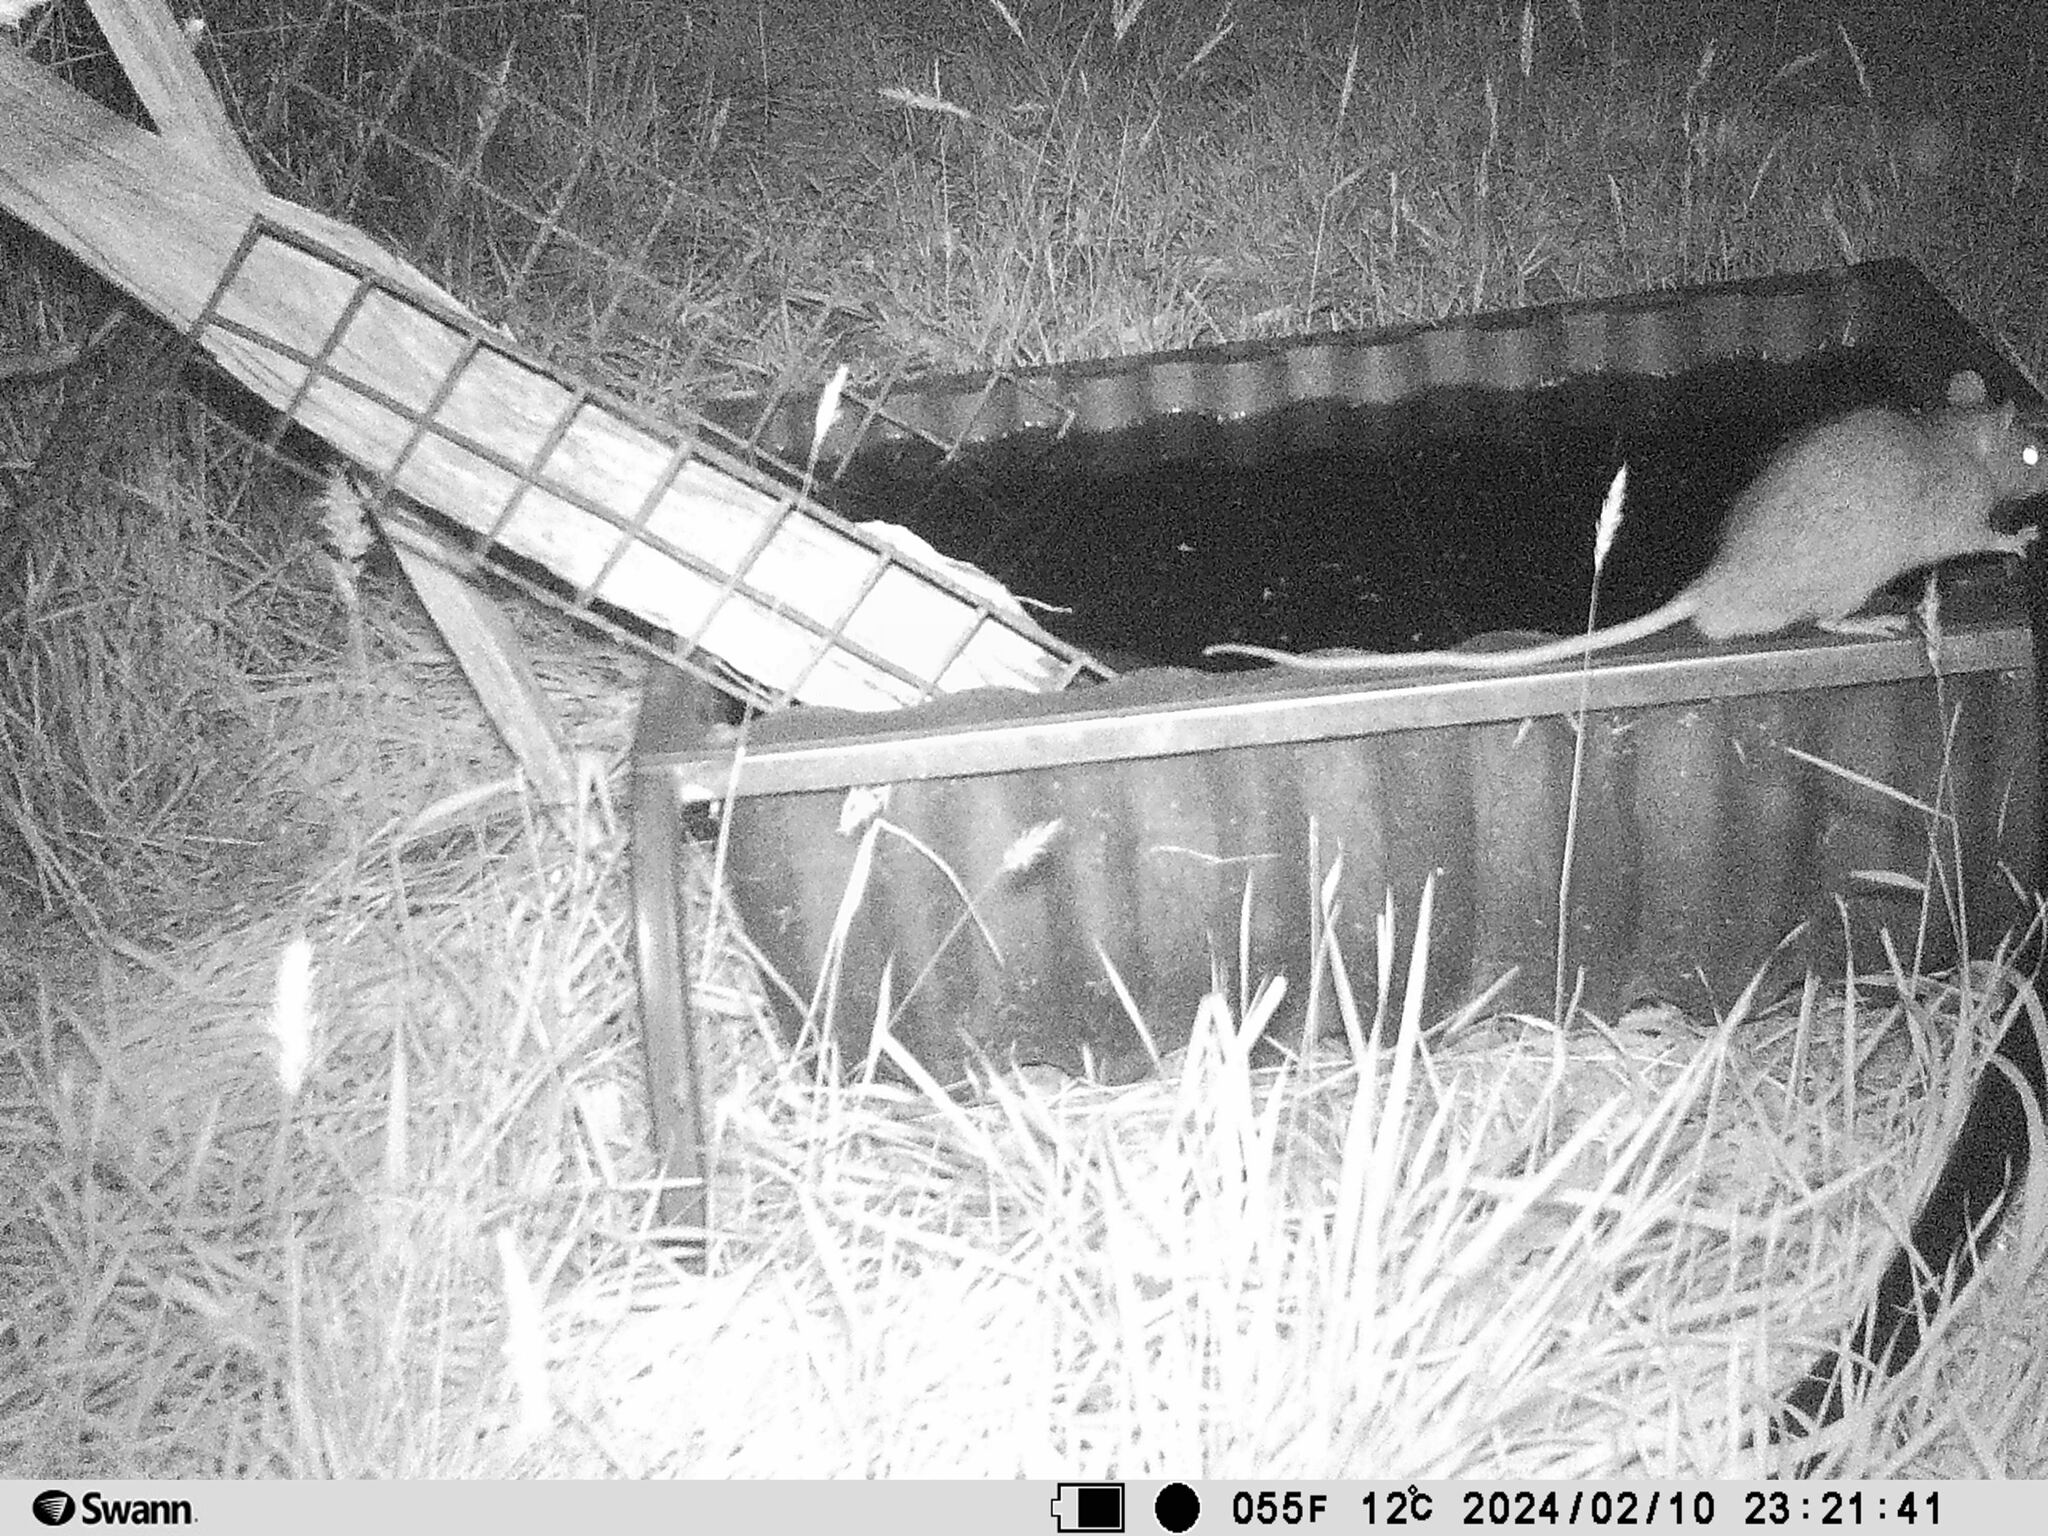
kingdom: Animalia
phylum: Chordata
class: Mammalia
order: Rodentia
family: Muridae
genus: Rattus
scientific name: Rattus rattus
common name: Black rat
